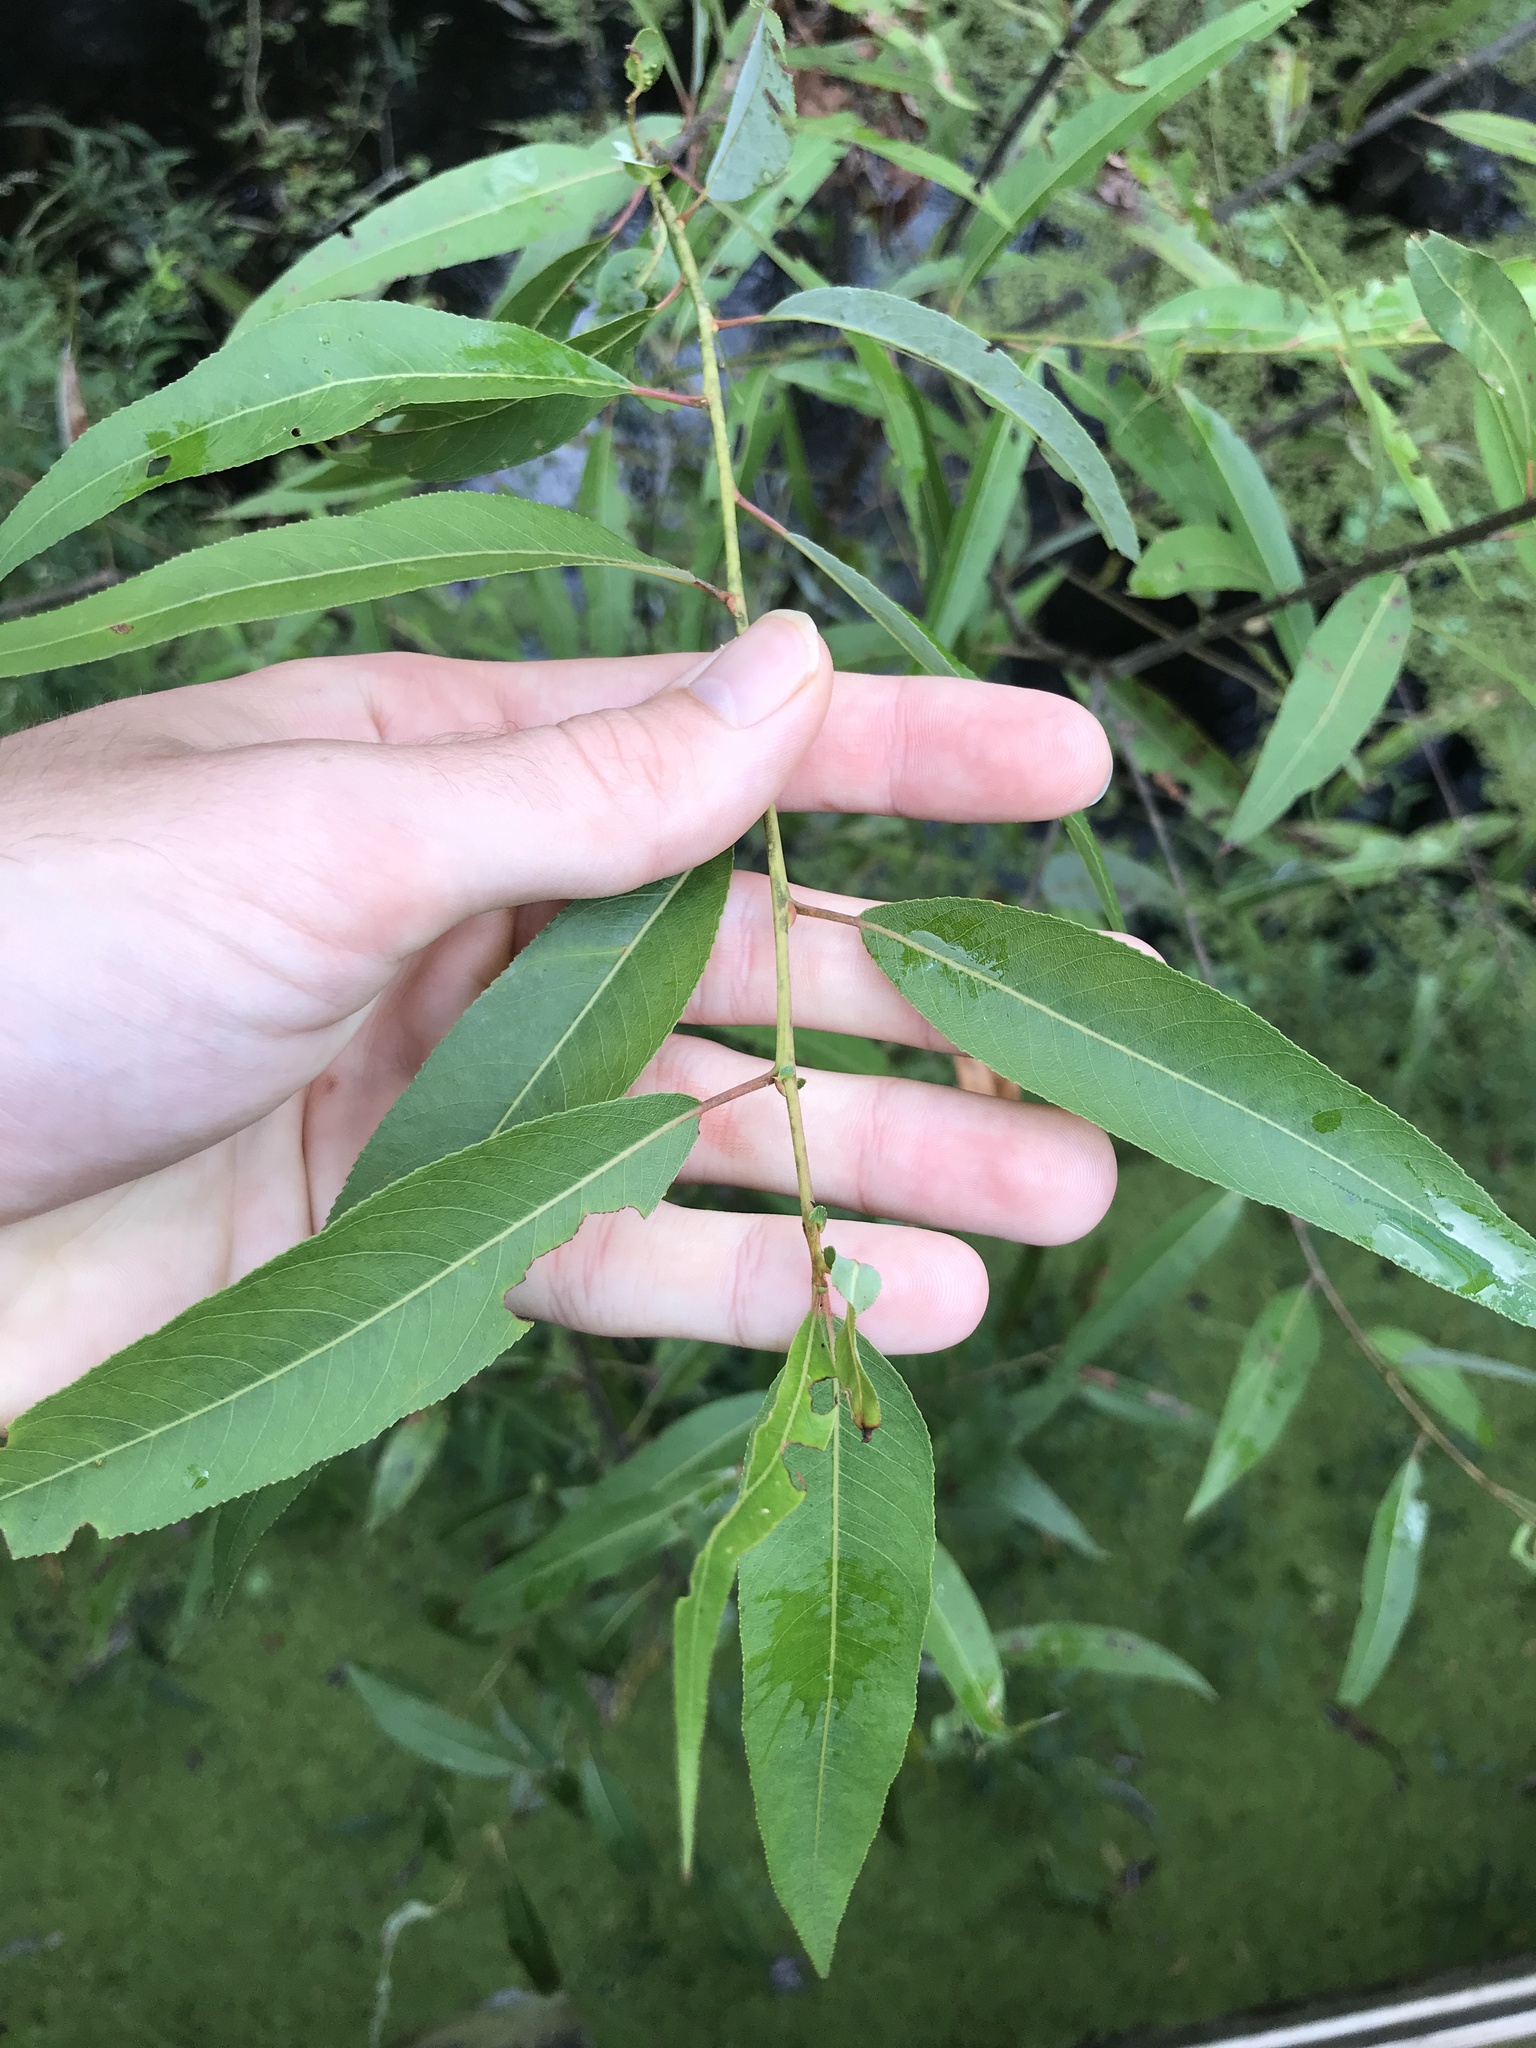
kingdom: Plantae
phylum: Tracheophyta
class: Magnoliopsida
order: Malpighiales
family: Salicaceae
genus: Salix
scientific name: Salix caroliniana
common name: Carolina willow
